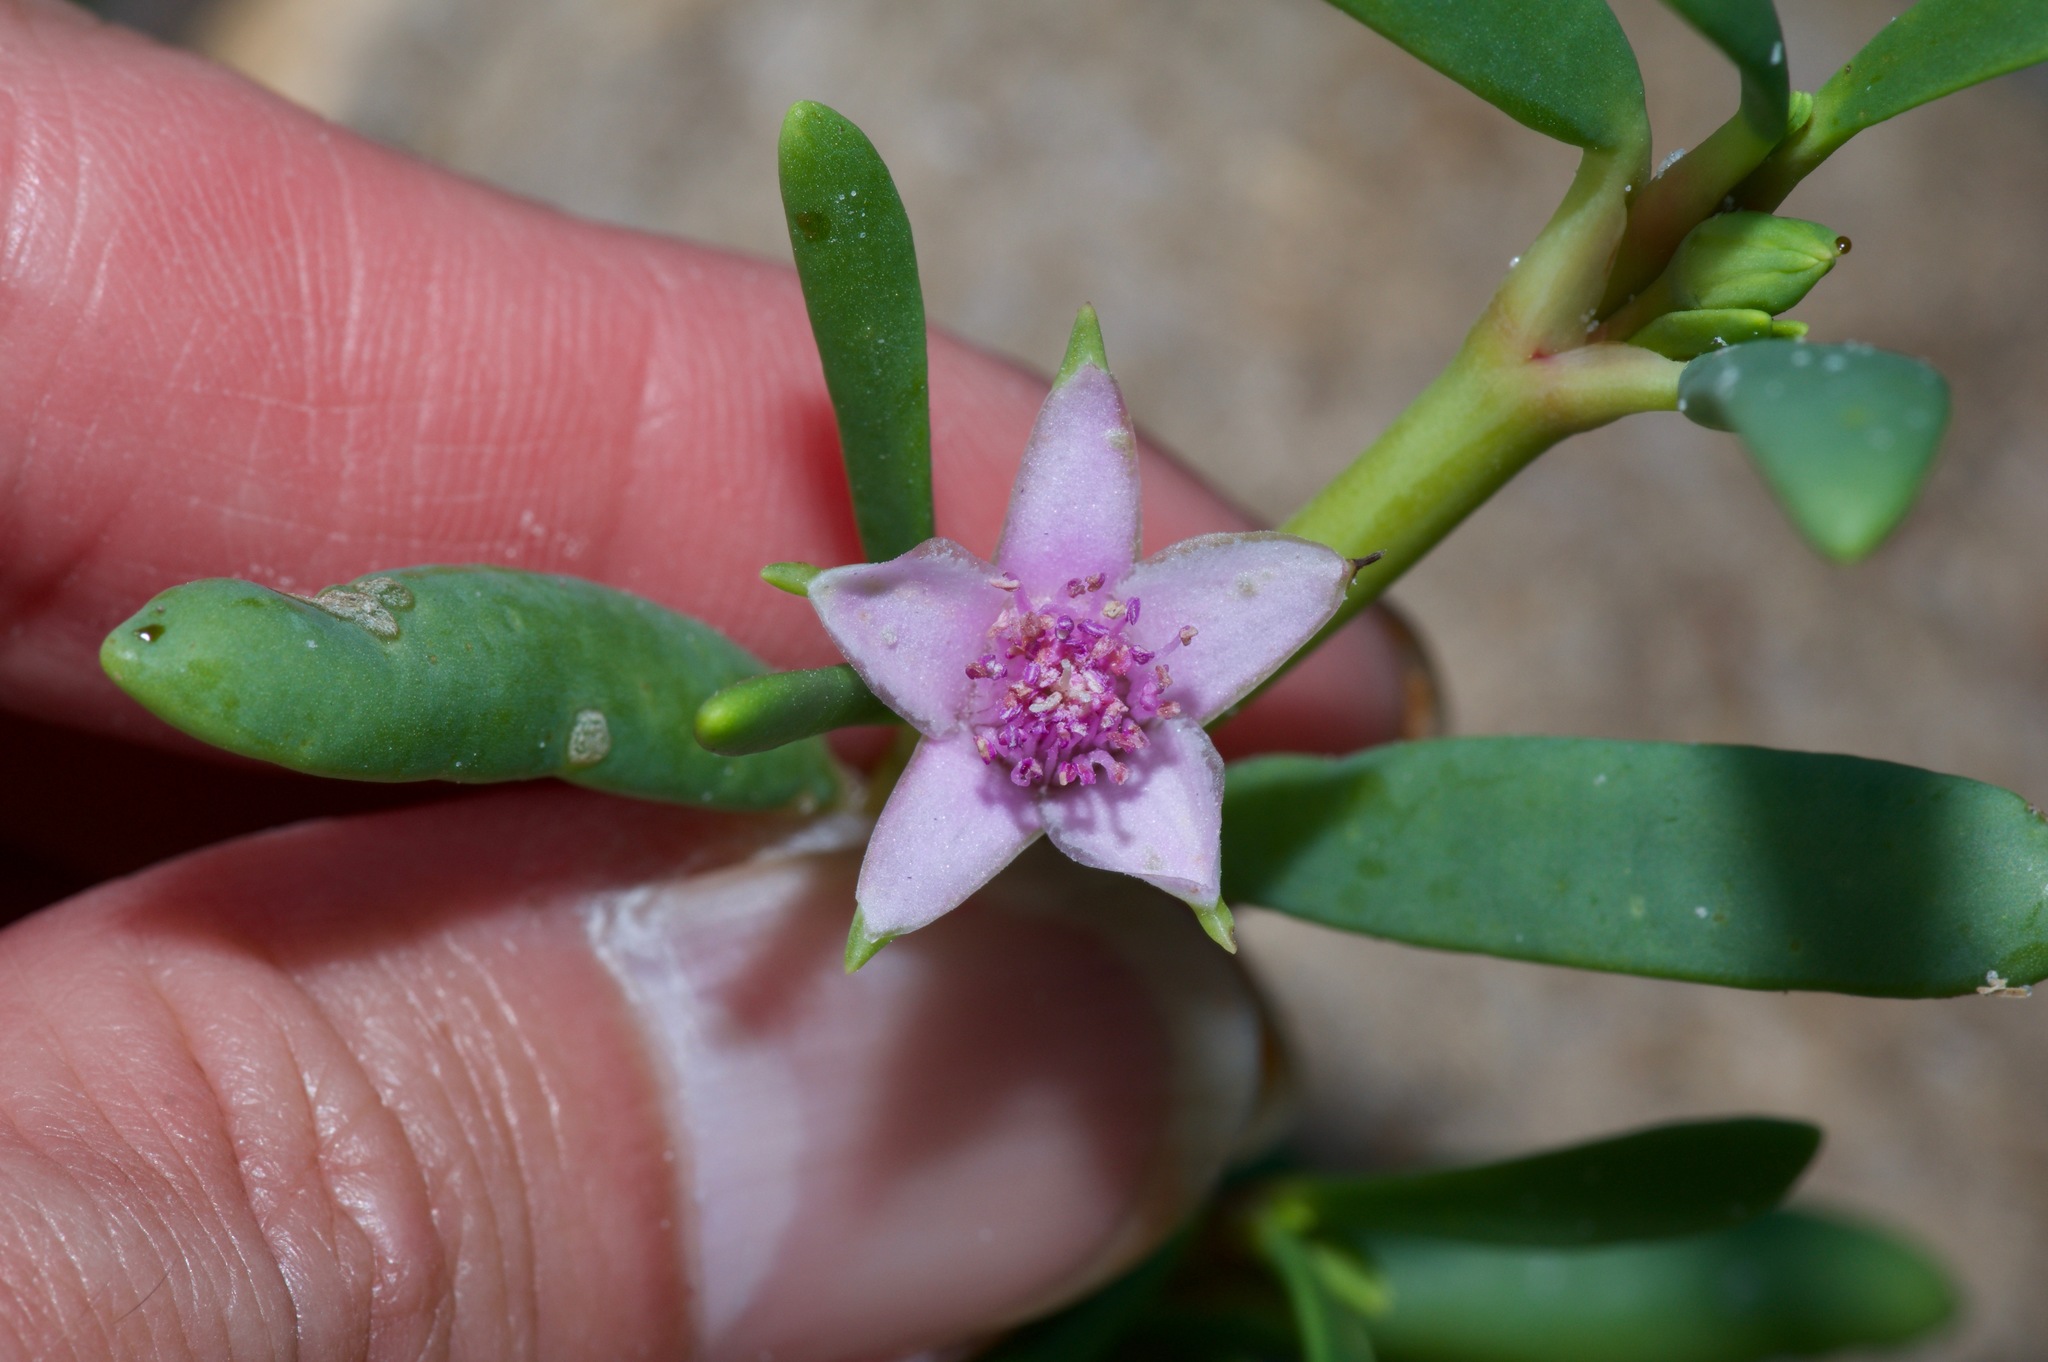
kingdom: Plantae
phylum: Tracheophyta
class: Magnoliopsida
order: Caryophyllales
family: Aizoaceae
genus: Sesuvium
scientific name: Sesuvium portulacastrum
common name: Sea-purslane
